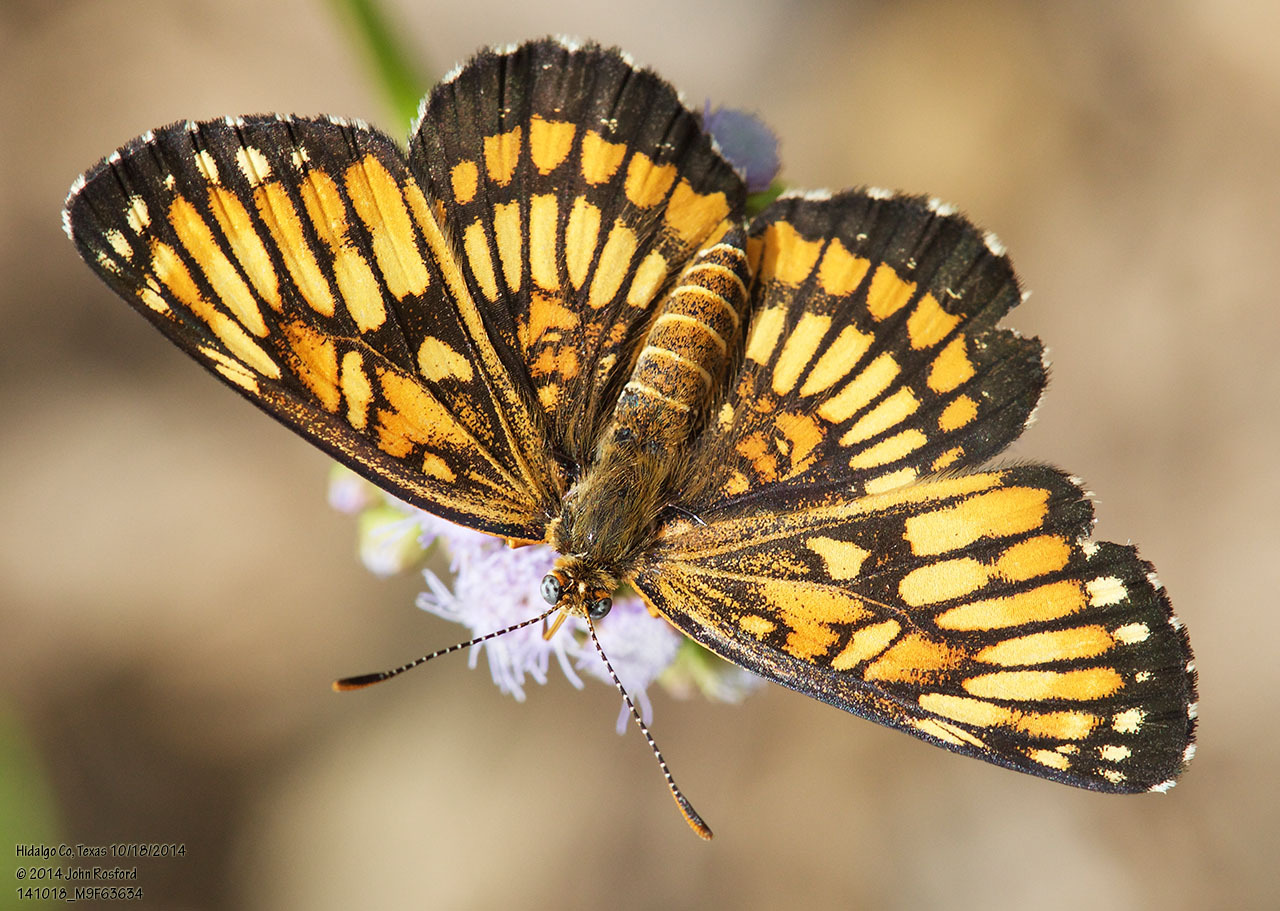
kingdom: Animalia
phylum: Arthropoda
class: Insecta
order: Lepidoptera
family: Nymphalidae
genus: Thessalia
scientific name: Thessalia theona
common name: Nymphalid moth
